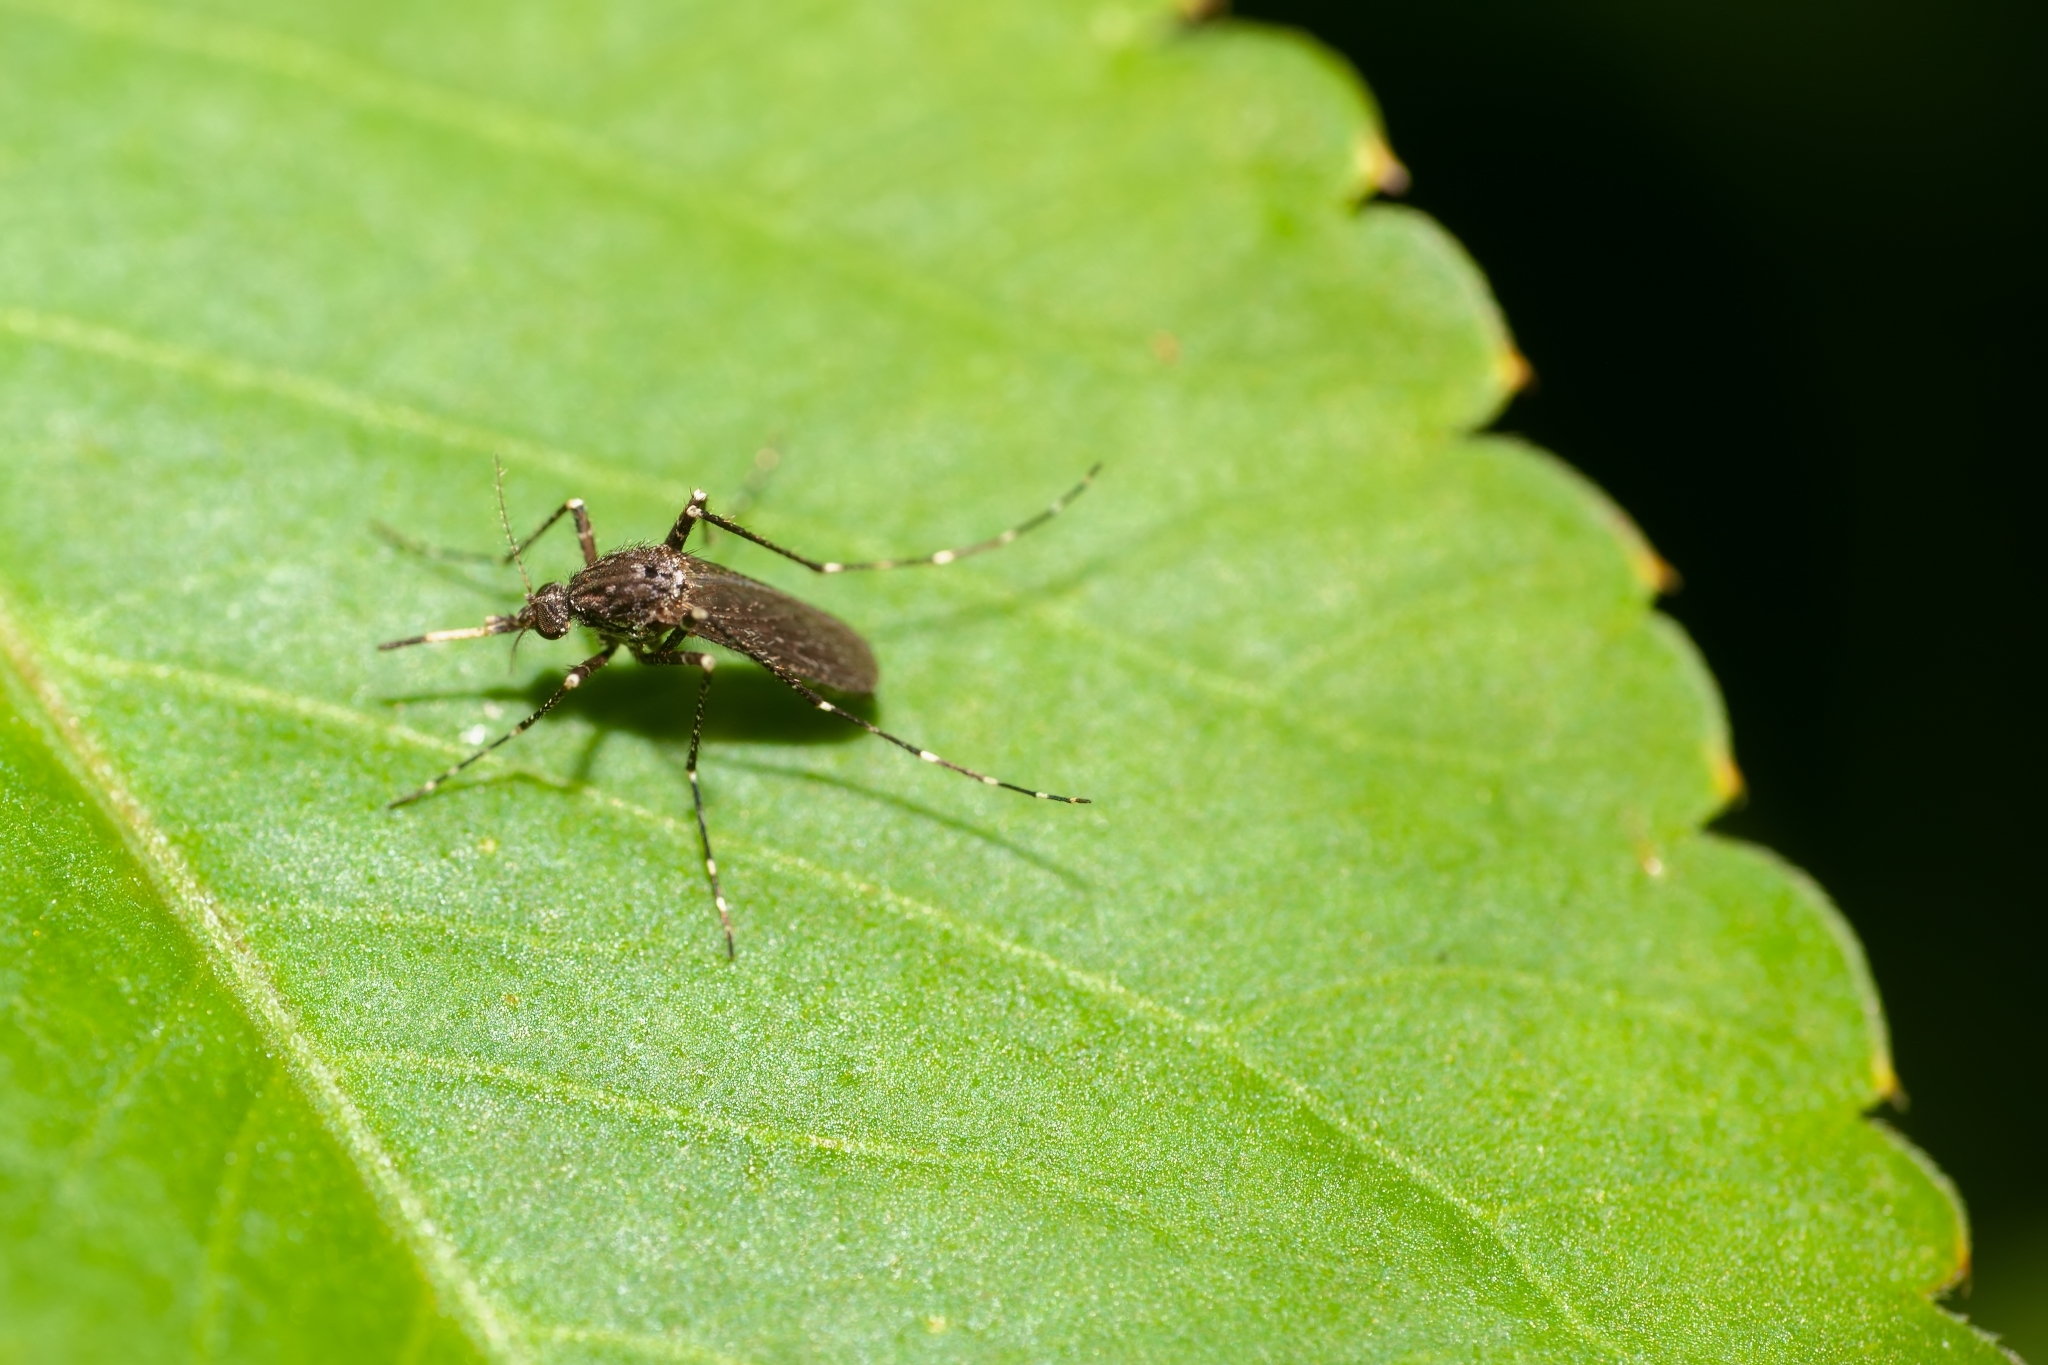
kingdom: Animalia
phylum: Arthropoda
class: Insecta
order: Diptera
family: Culicidae
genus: Psorophora
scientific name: Psorophora columbiae
